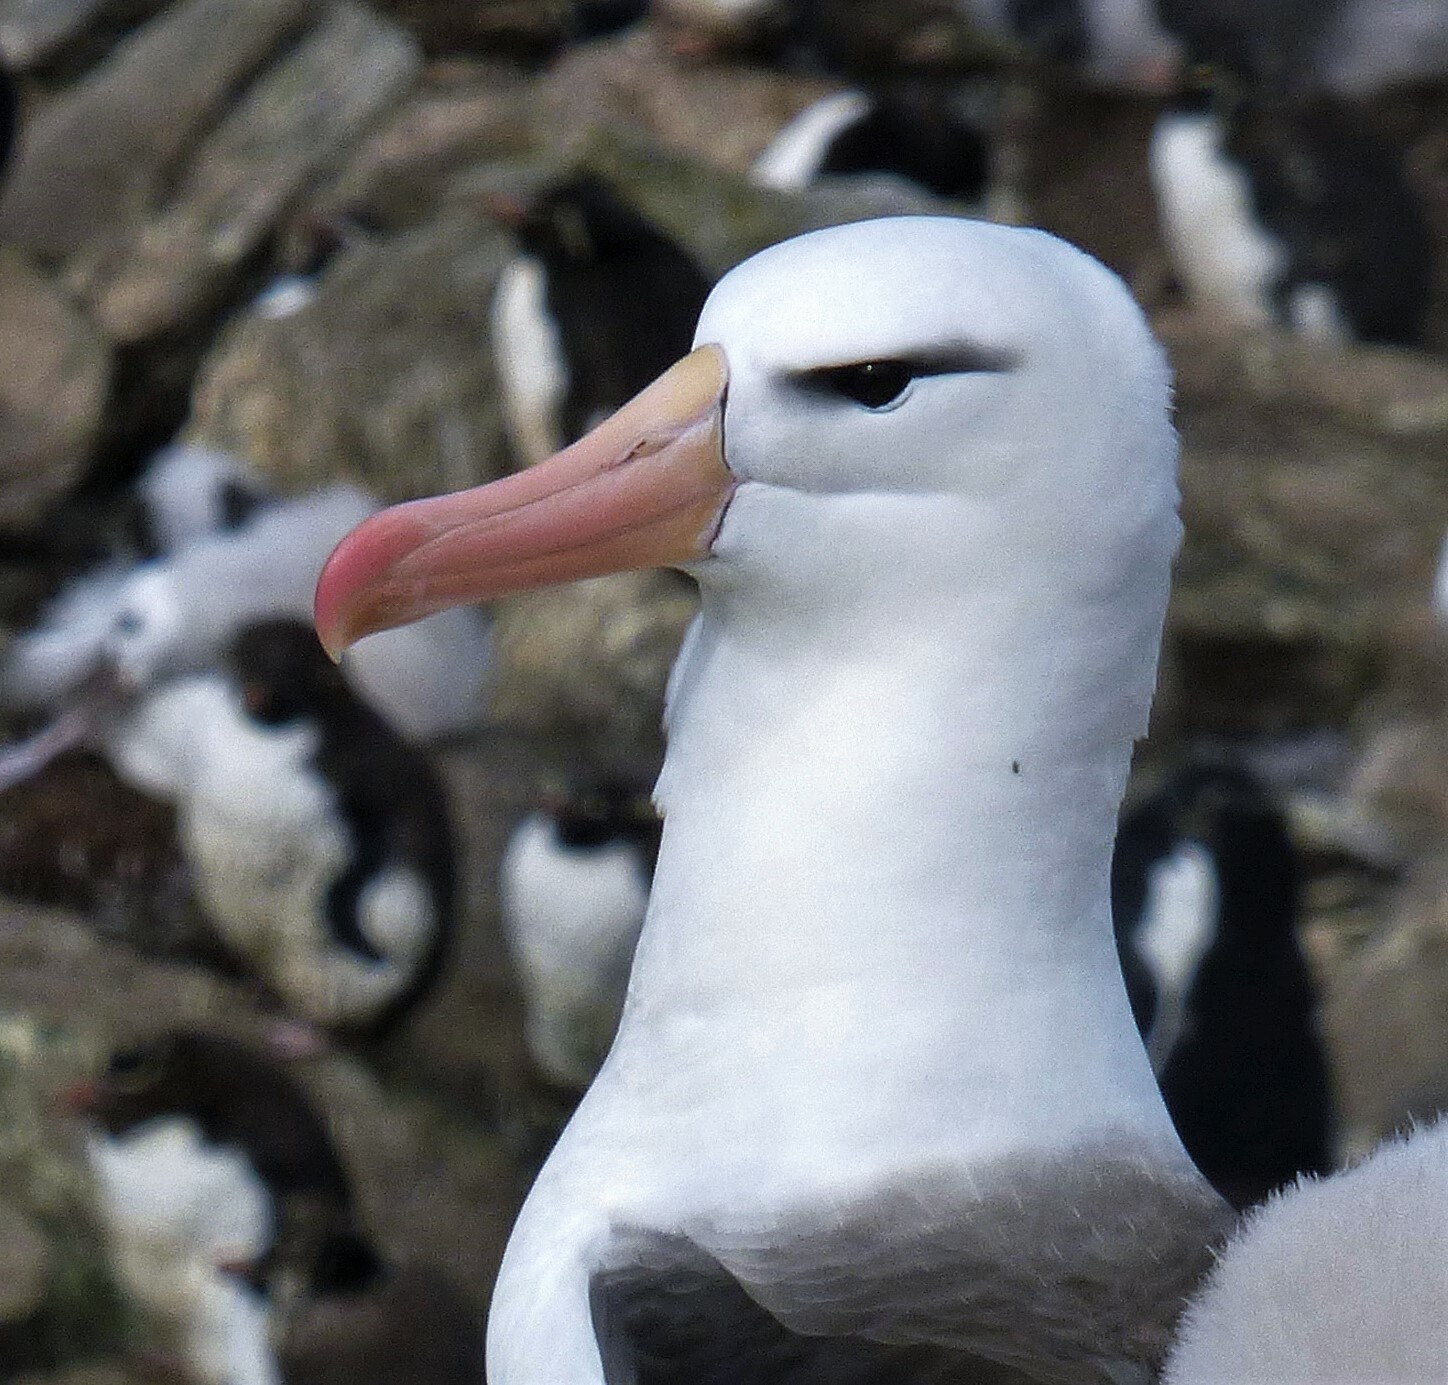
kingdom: Animalia
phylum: Chordata
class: Aves
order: Procellariiformes
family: Diomedeidae
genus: Thalassarche
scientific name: Thalassarche melanophris
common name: Black-browed albatross
